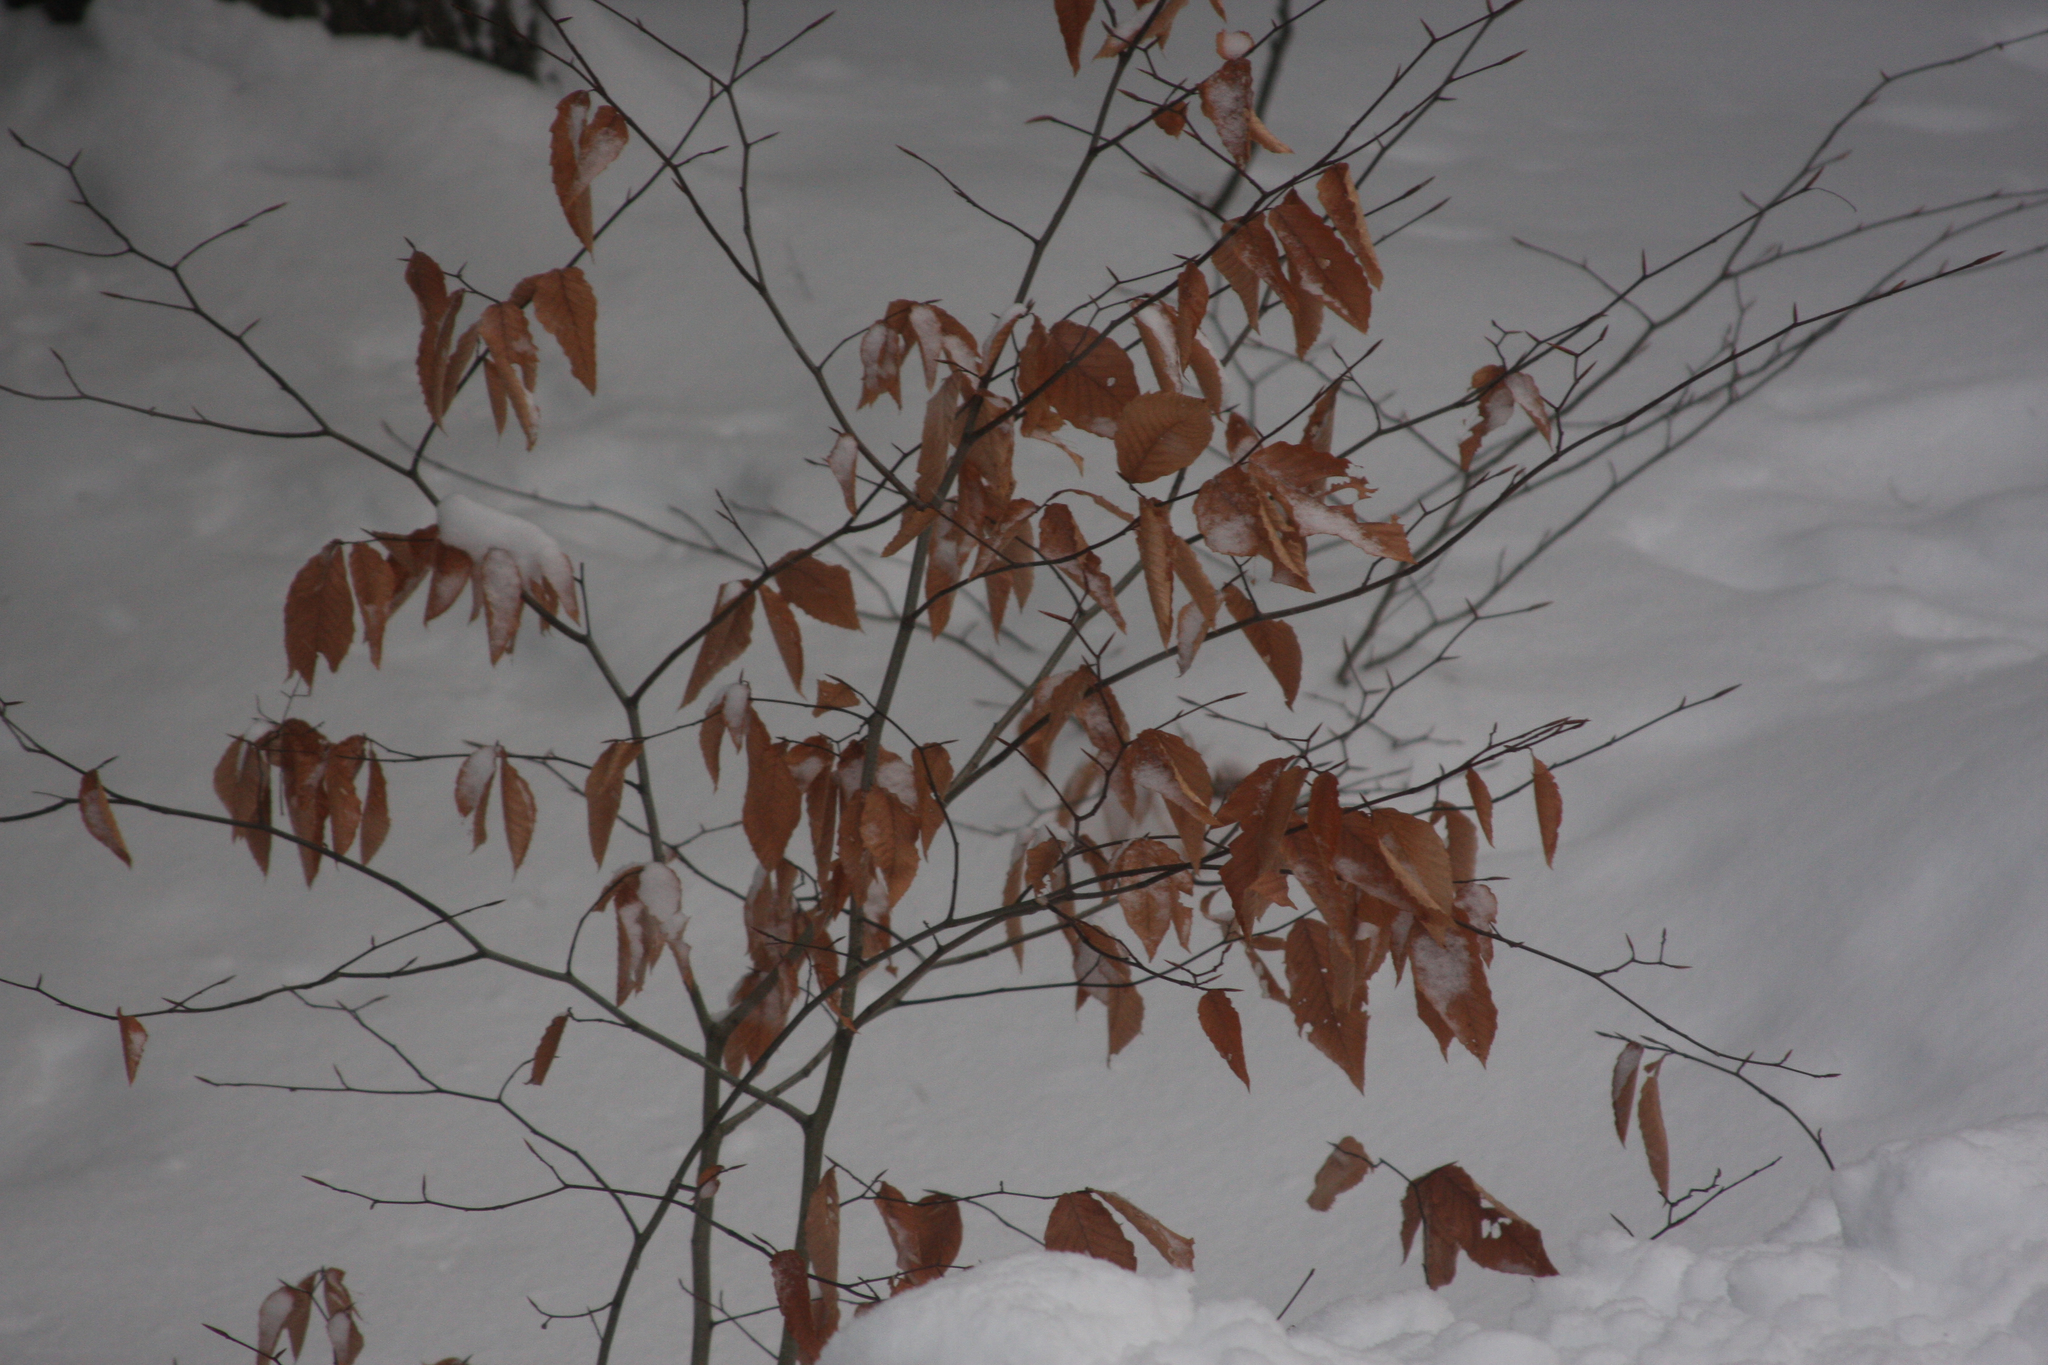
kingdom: Plantae
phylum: Tracheophyta
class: Magnoliopsida
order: Fagales
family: Fagaceae
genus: Fagus
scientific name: Fagus grandifolia
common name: American beech
